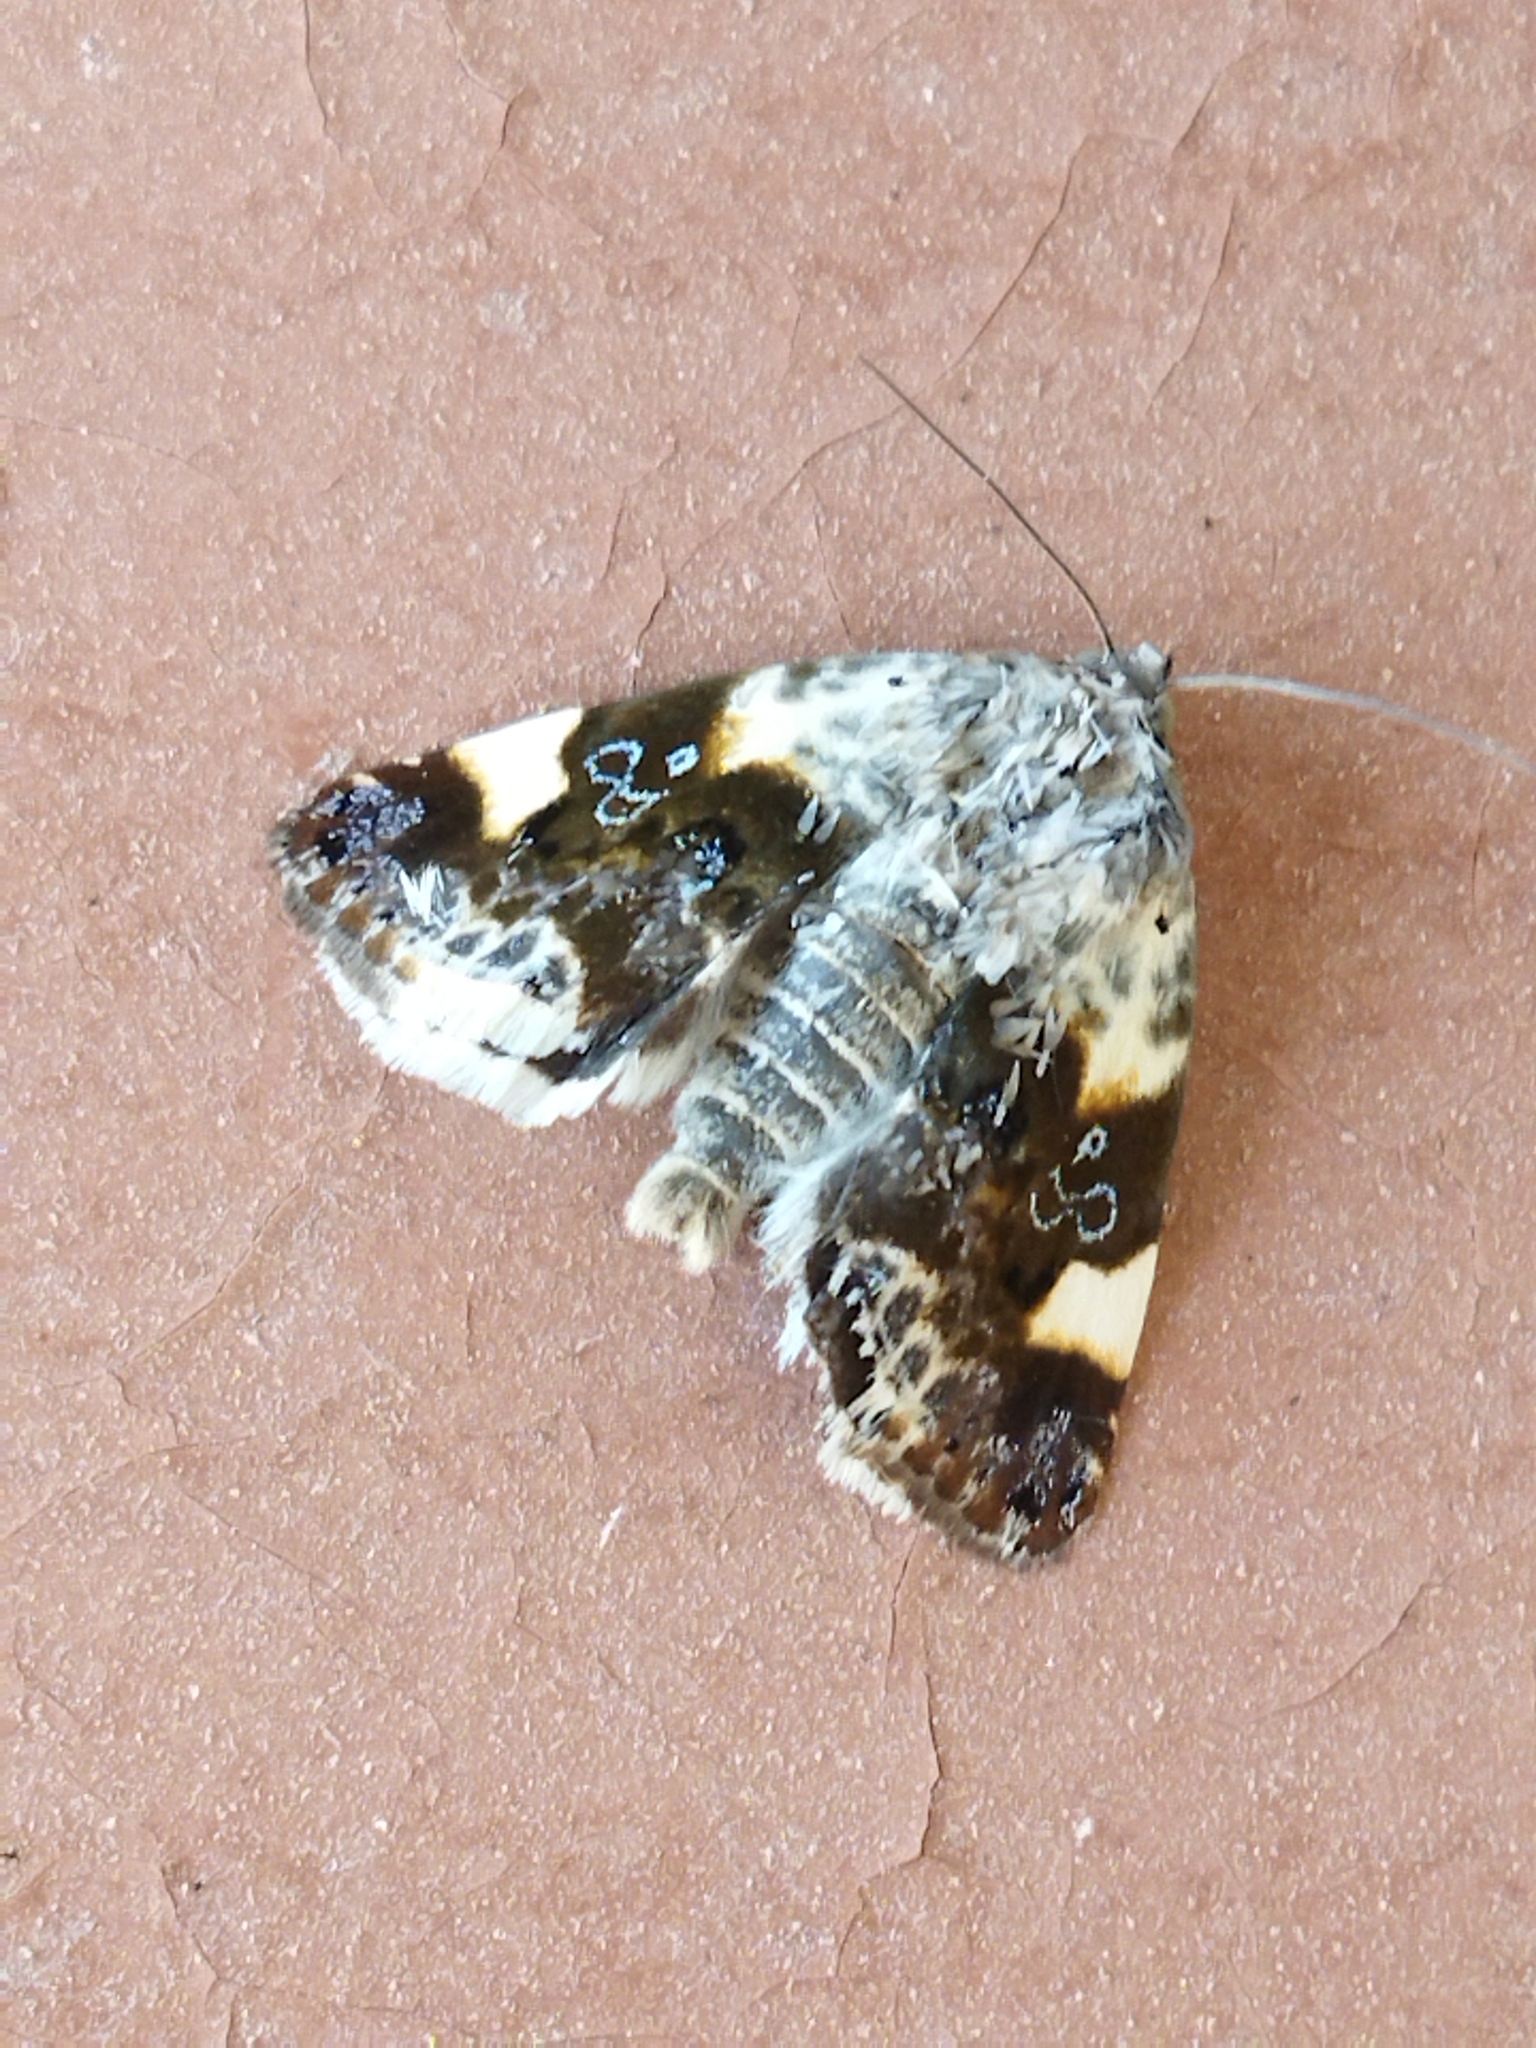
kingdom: Animalia
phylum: Arthropoda
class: Insecta
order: Lepidoptera
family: Noctuidae
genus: Acontia
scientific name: Acontia lucida
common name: Pale shoulder
